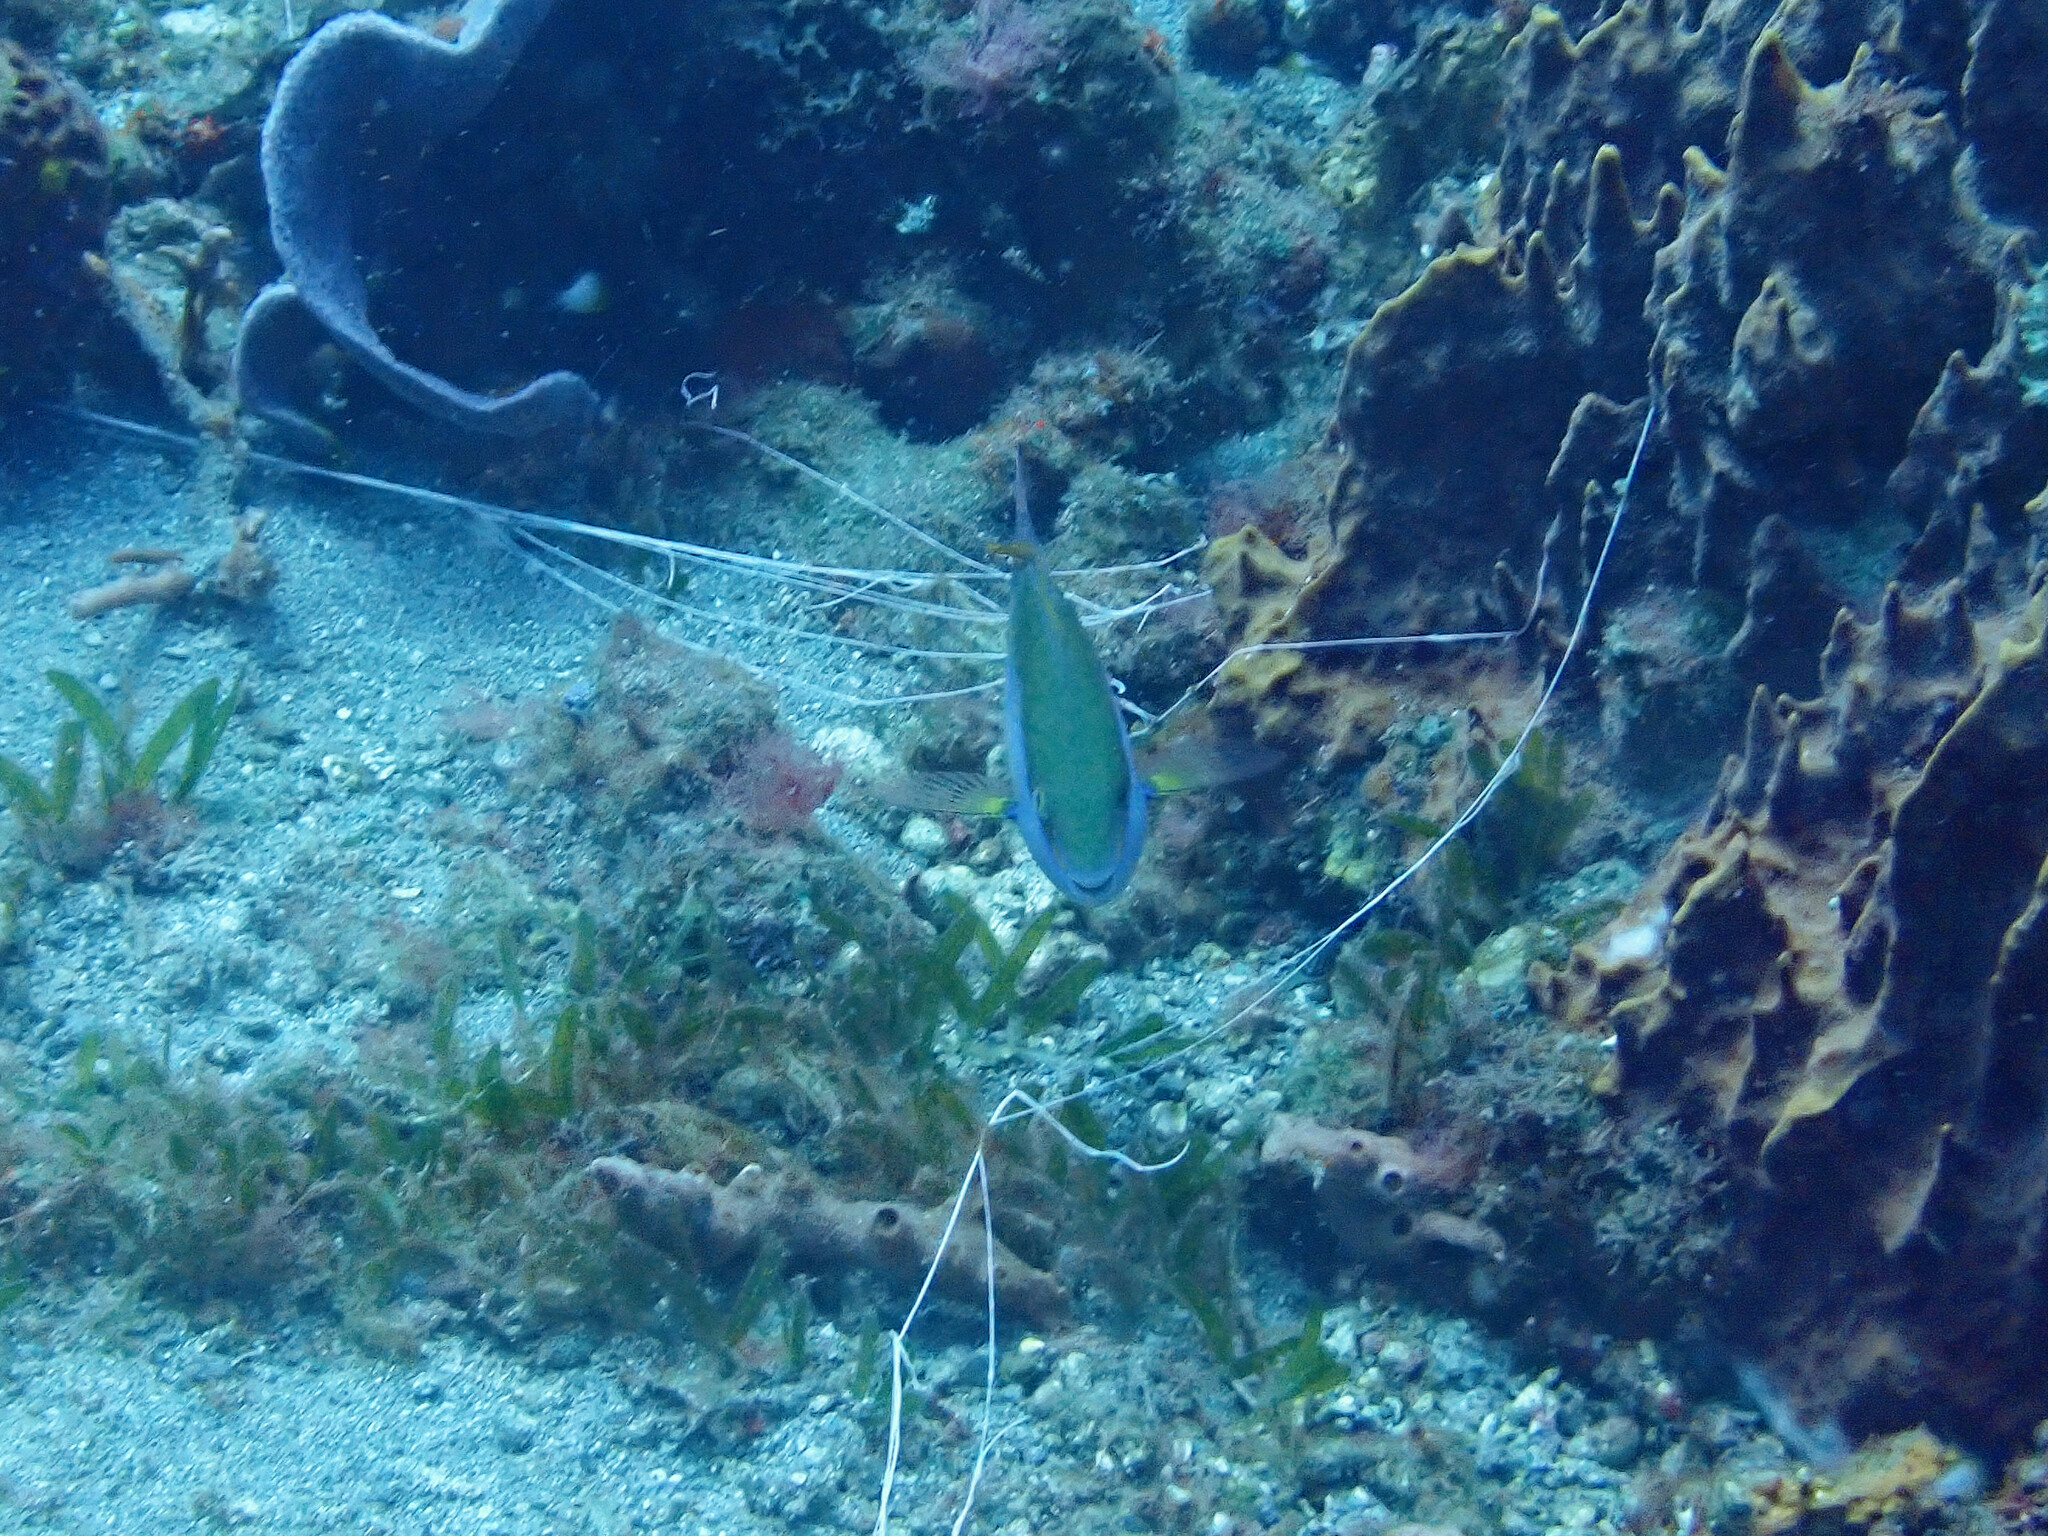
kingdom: Animalia
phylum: Chordata
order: Perciformes
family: Scaridae
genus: Sparisoma
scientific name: Sparisoma aurofrenatum
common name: Redband parrotfish
